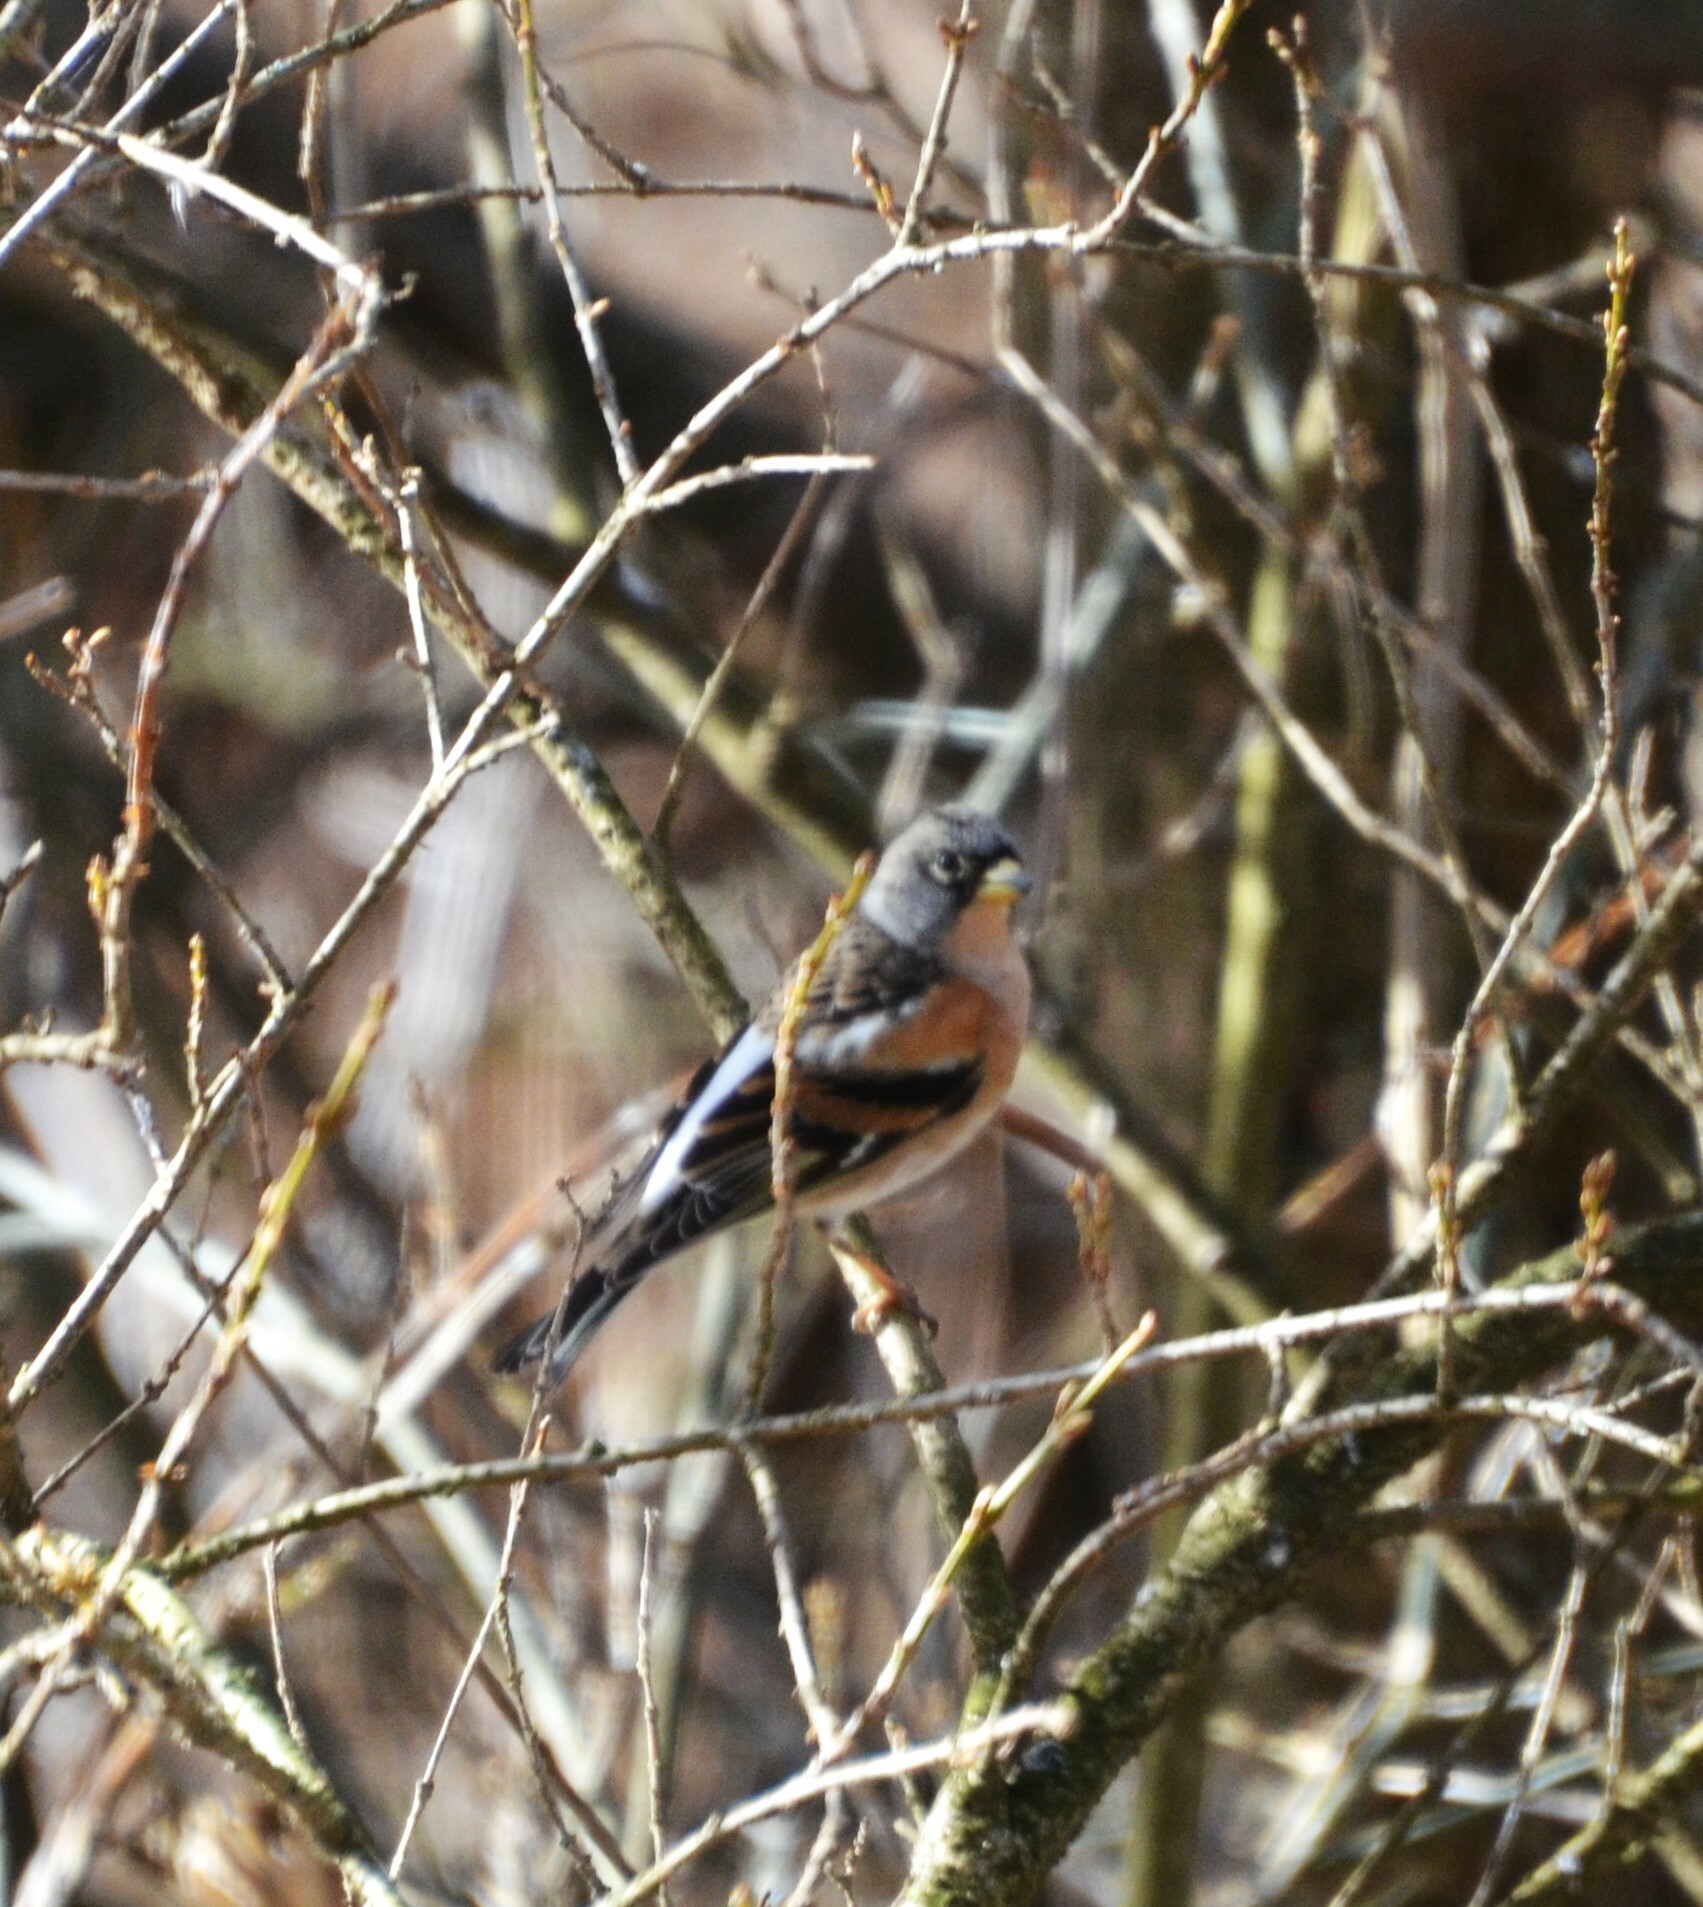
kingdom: Animalia
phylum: Chordata
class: Aves
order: Passeriformes
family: Fringillidae
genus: Fringilla
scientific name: Fringilla montifringilla
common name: Brambling
